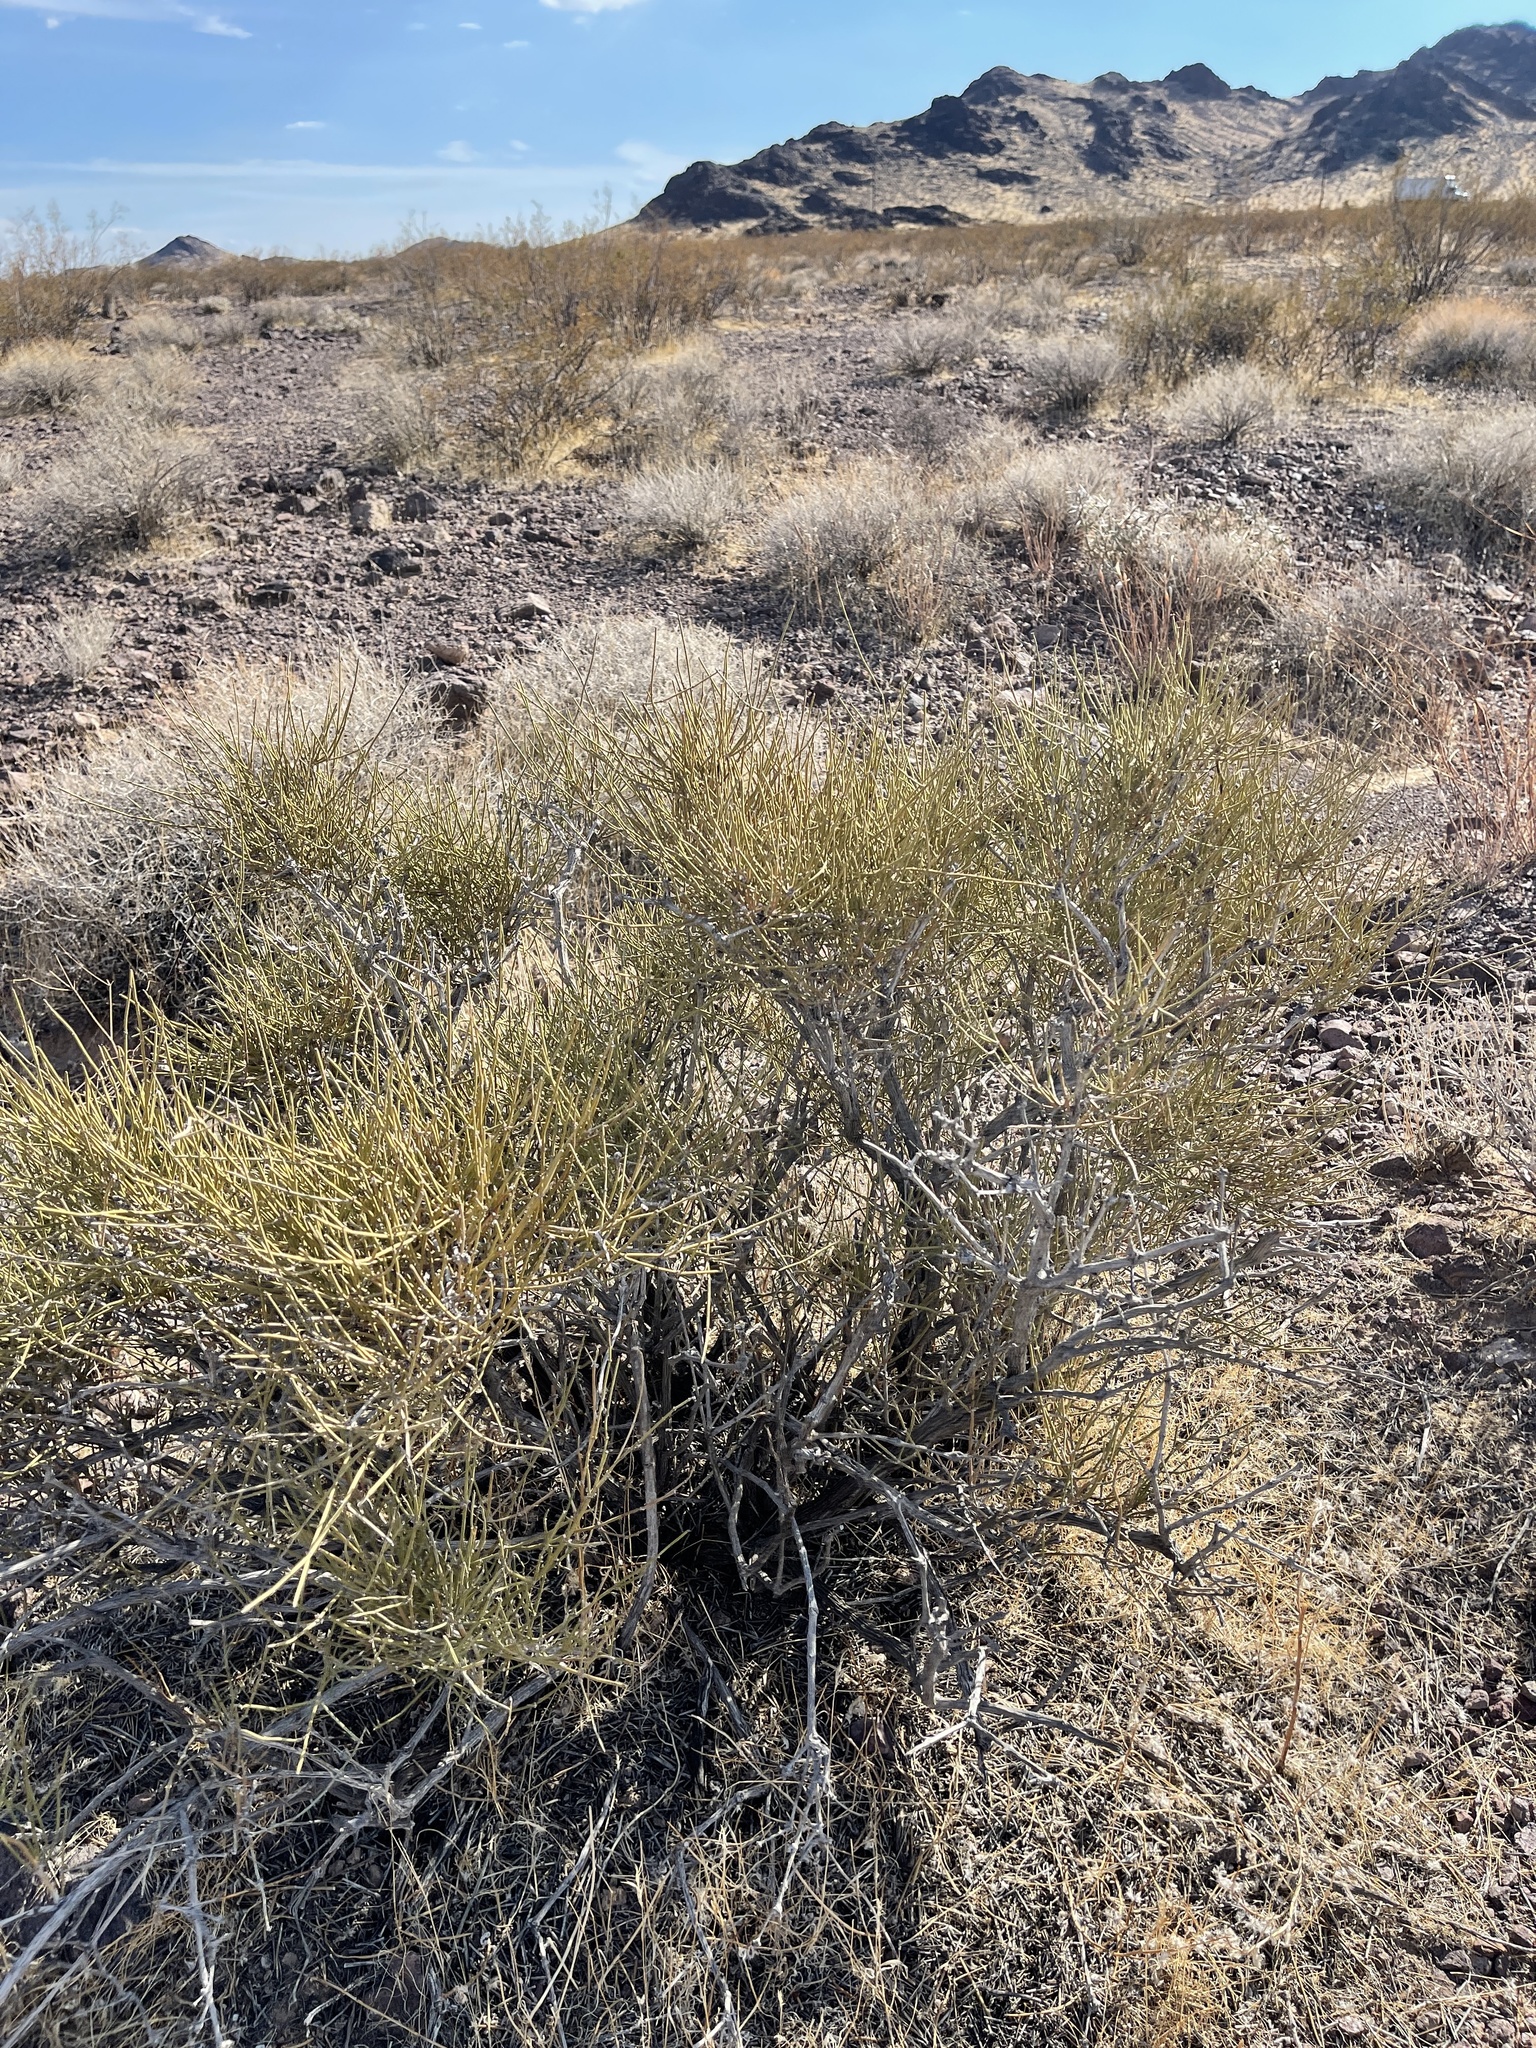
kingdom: Plantae
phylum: Tracheophyta
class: Magnoliopsida
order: Zygophyllales
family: Zygophyllaceae
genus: Larrea
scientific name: Larrea tridentata
